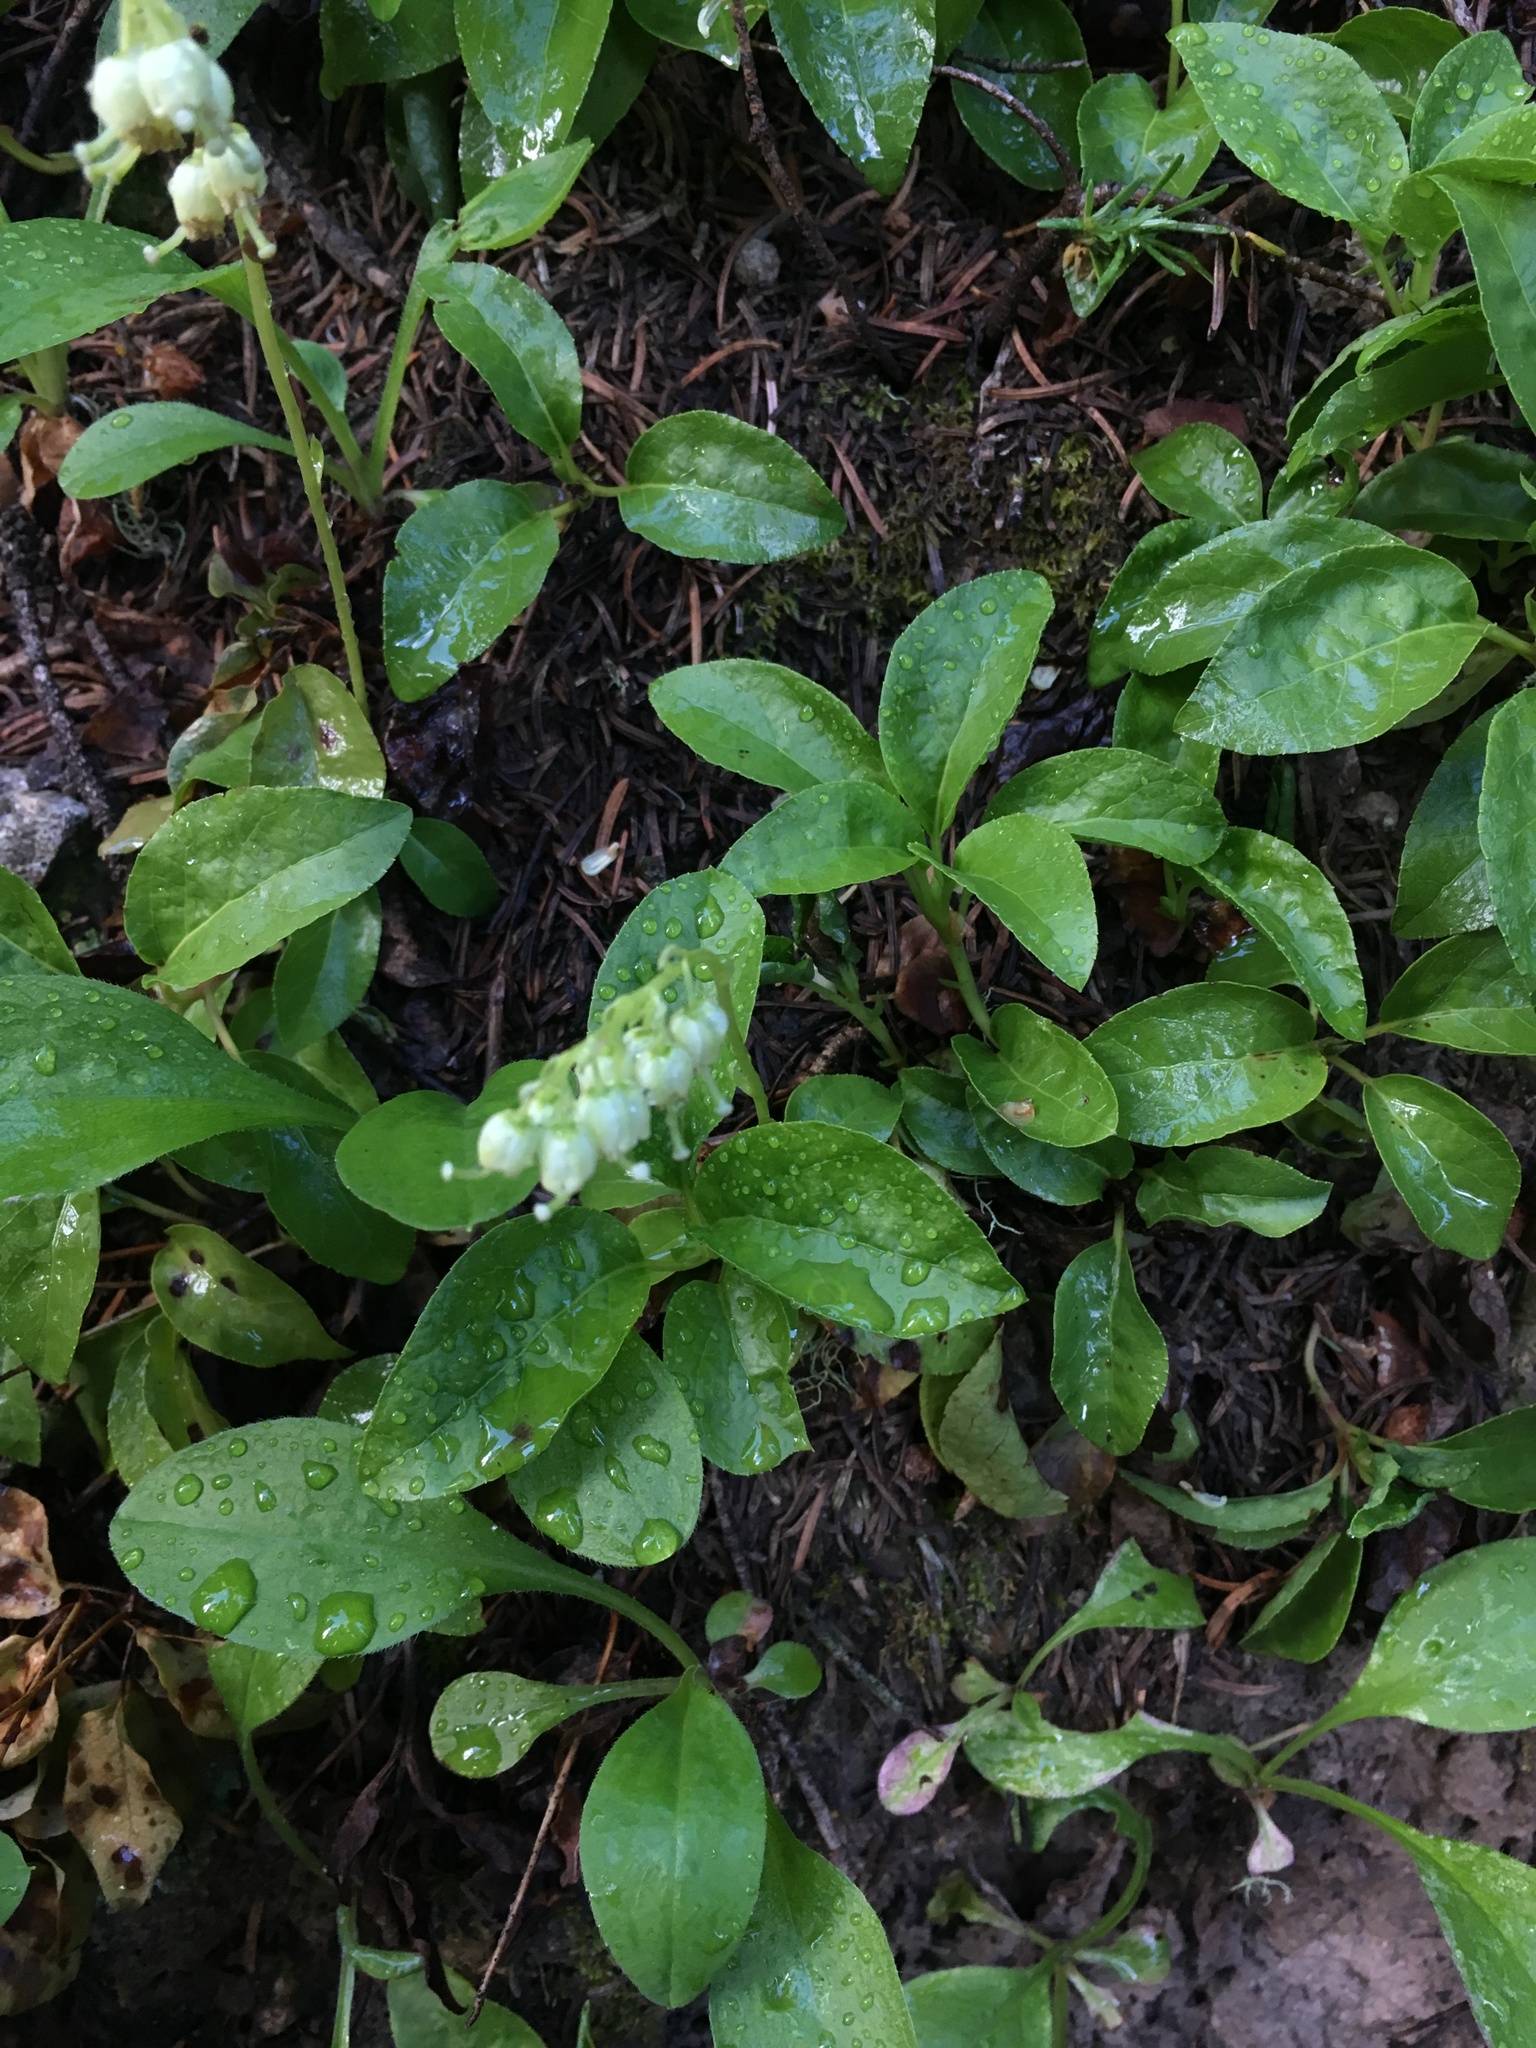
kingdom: Plantae
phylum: Tracheophyta
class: Magnoliopsida
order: Ericales
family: Ericaceae
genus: Orthilia
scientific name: Orthilia secunda
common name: One-sided orthilia
